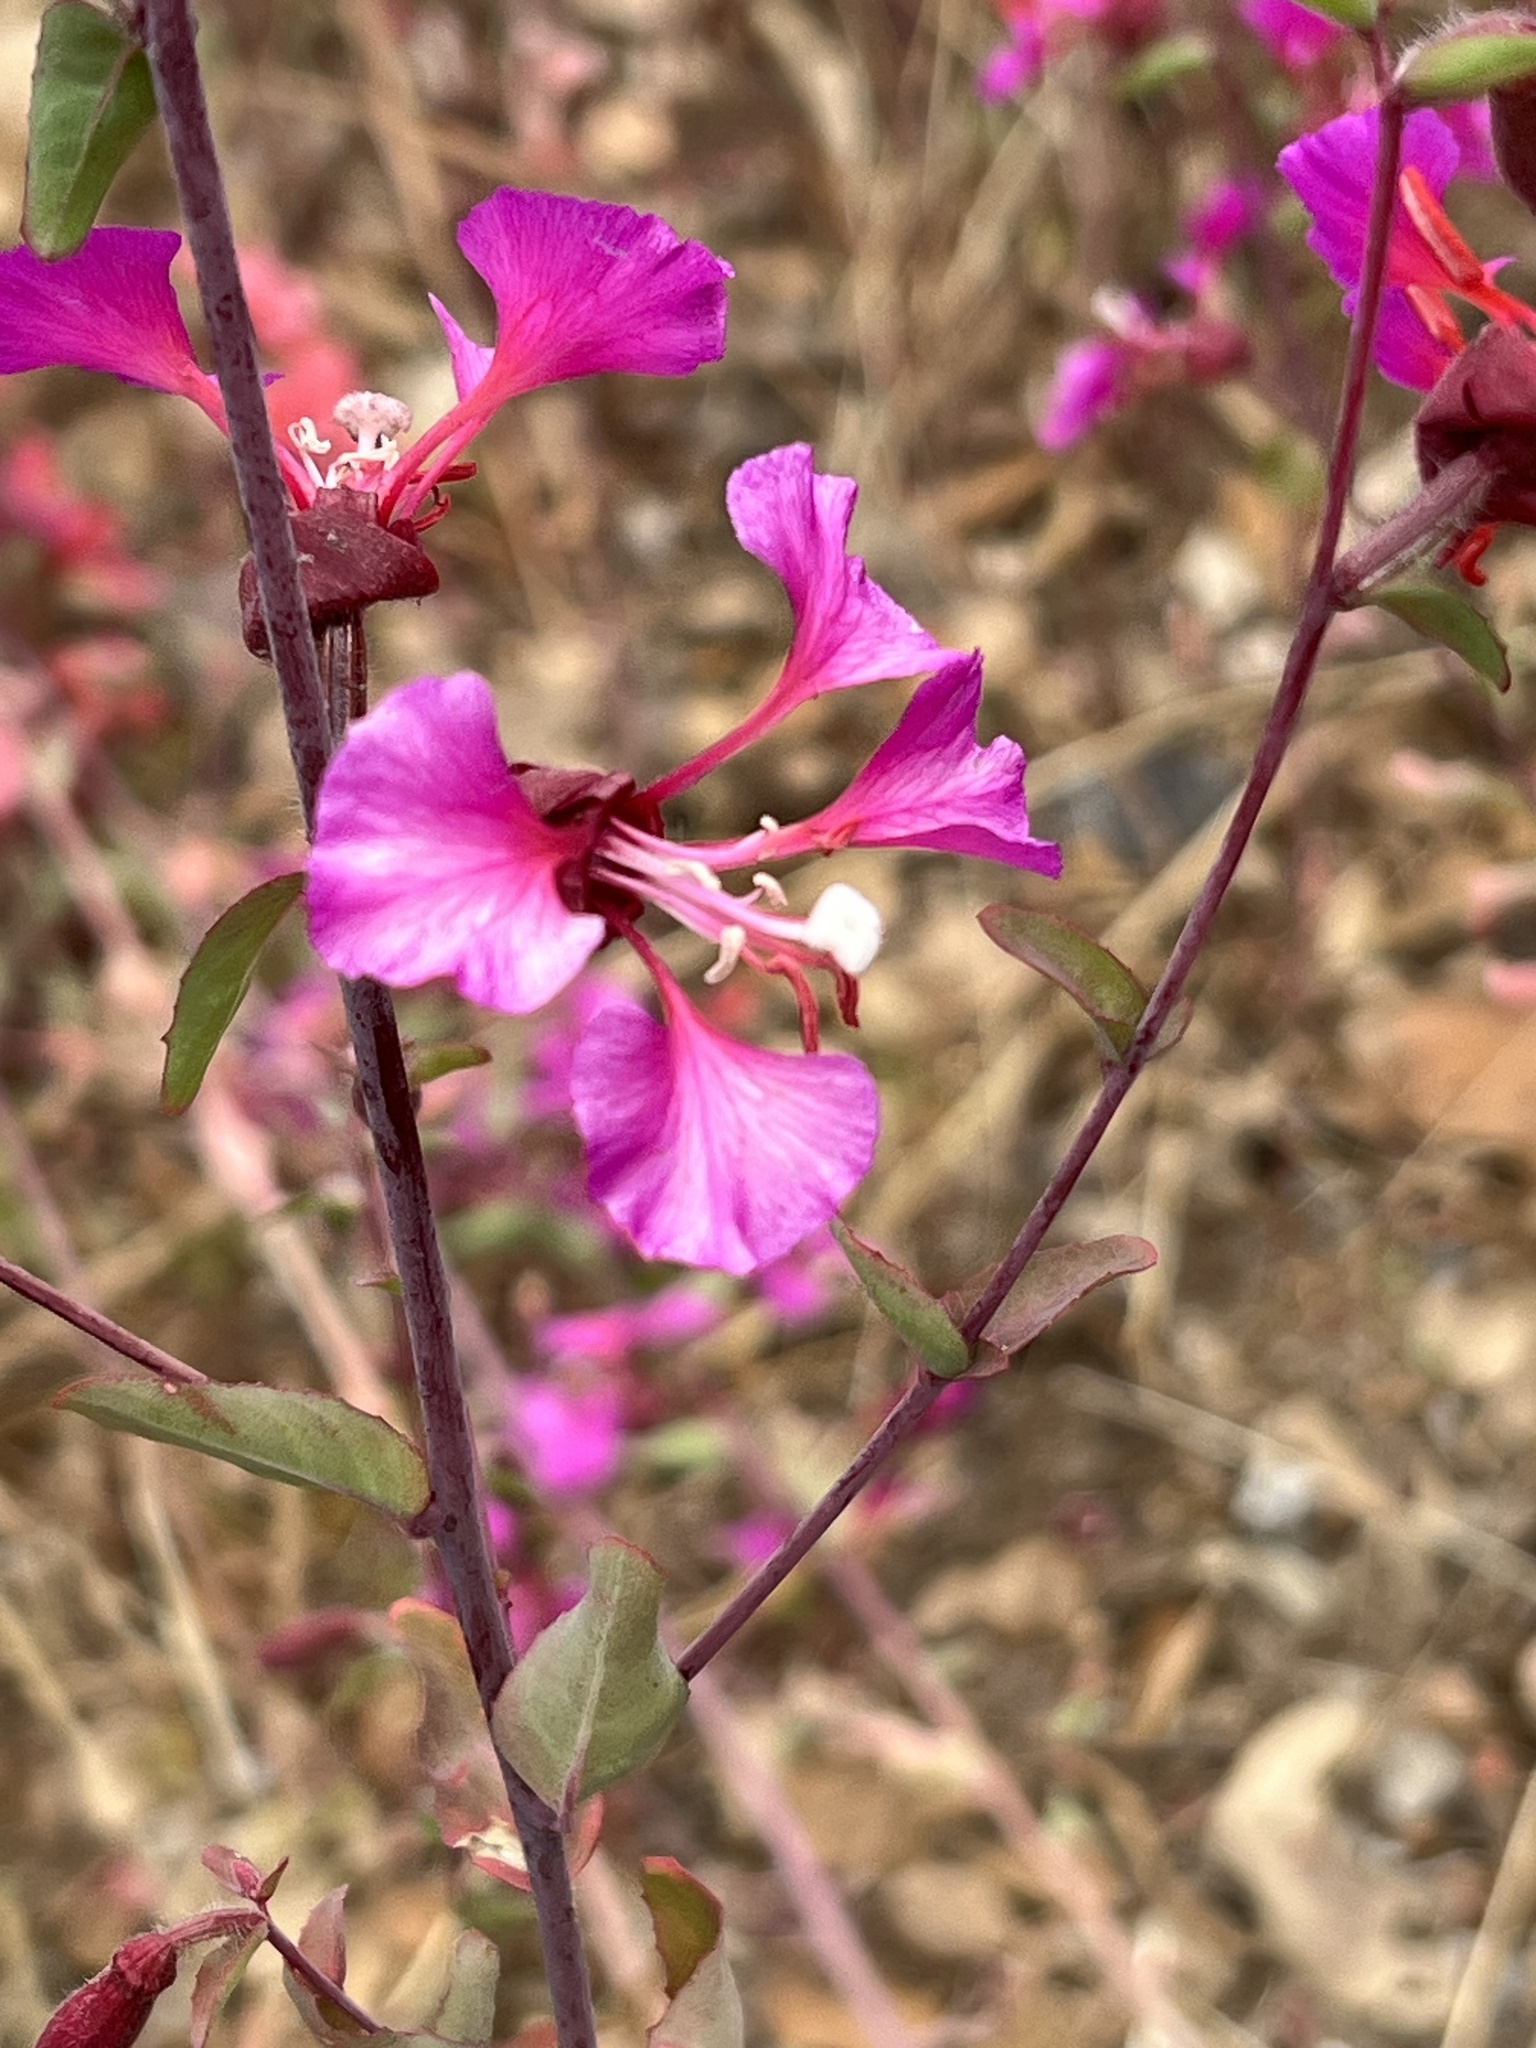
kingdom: Plantae
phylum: Tracheophyta
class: Magnoliopsida
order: Myrtales
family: Onagraceae
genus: Clarkia
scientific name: Clarkia unguiculata
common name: Clarkia
